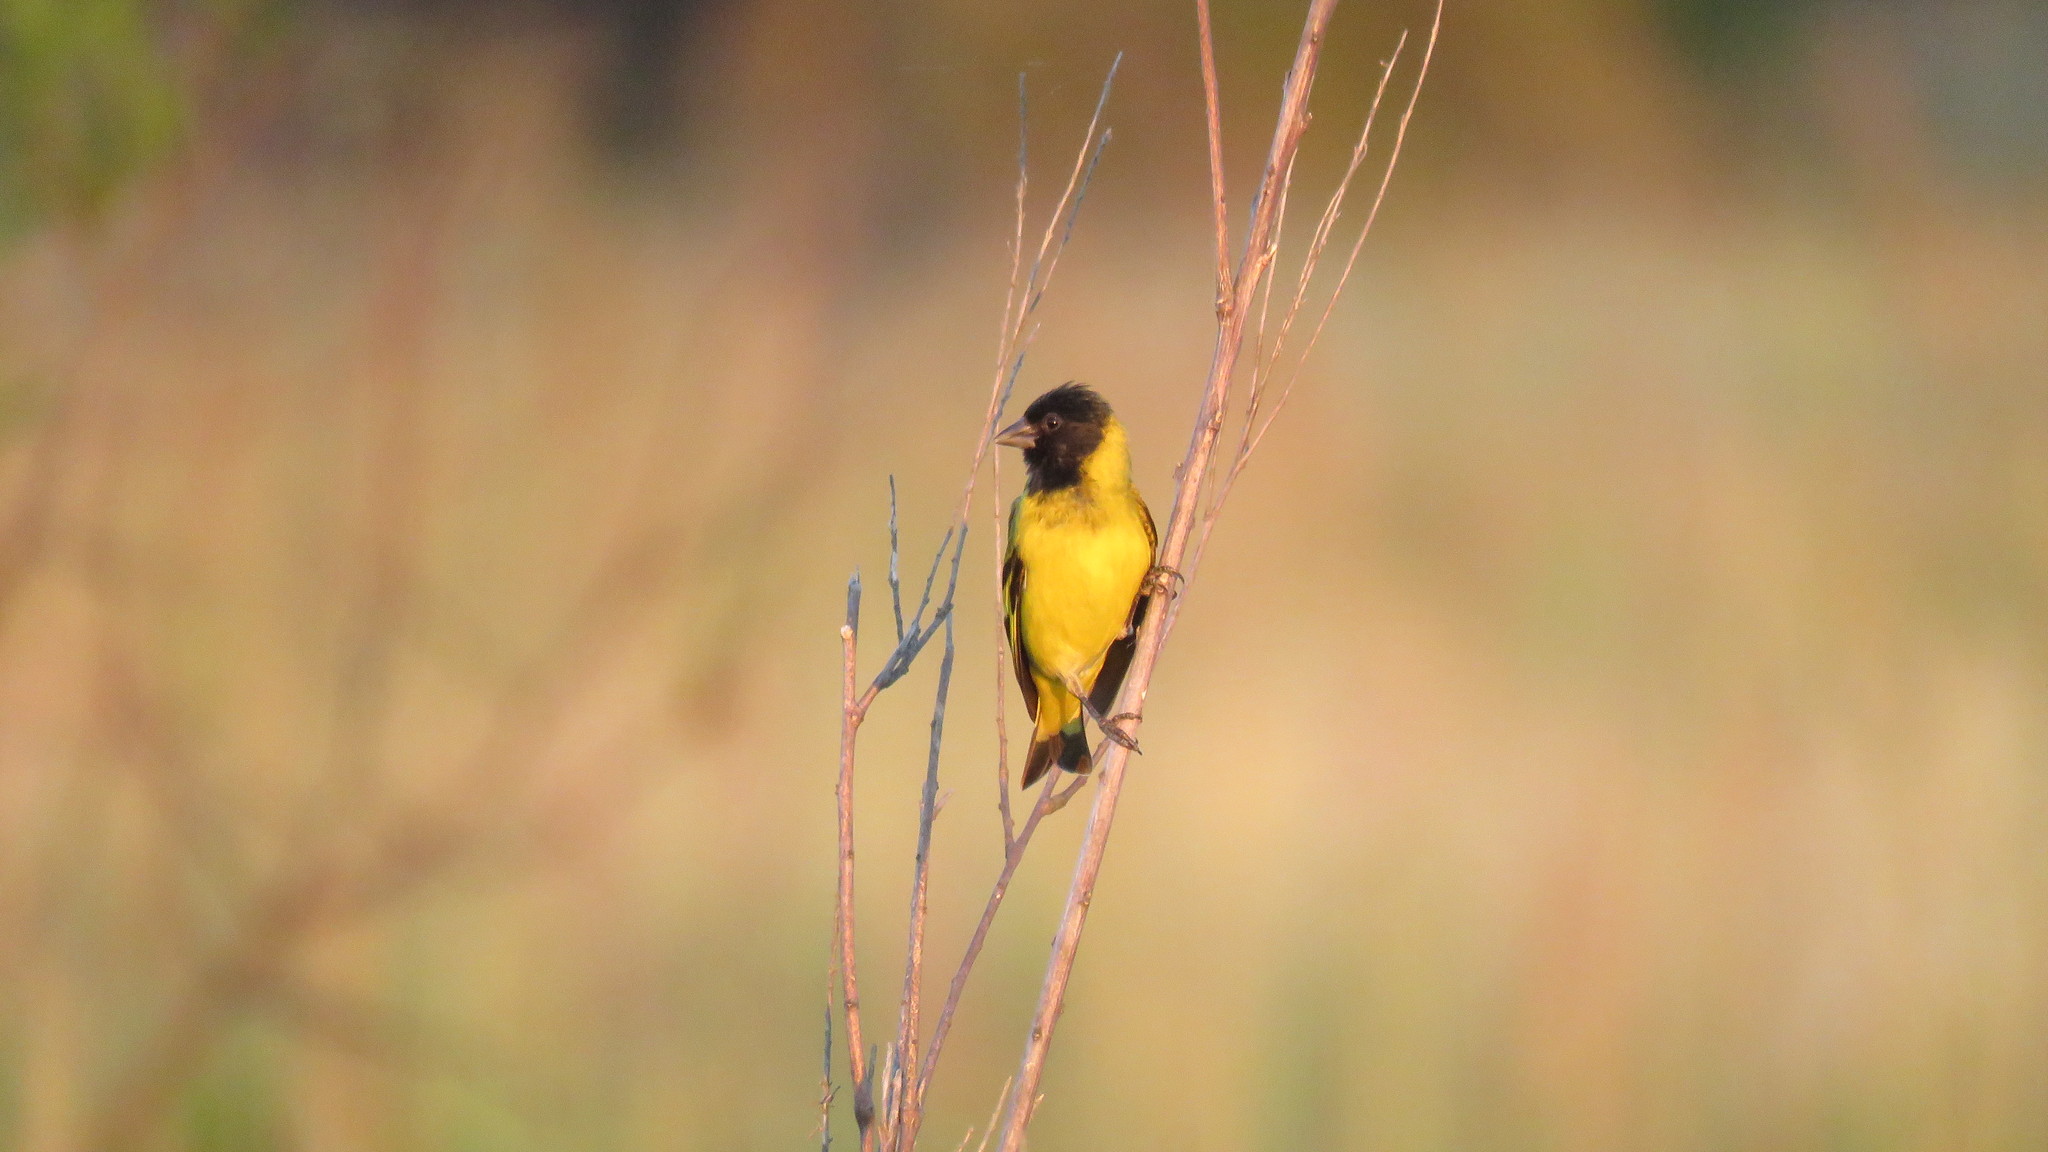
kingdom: Animalia
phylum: Chordata
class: Aves
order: Passeriformes
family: Fringillidae
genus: Spinus
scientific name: Spinus magellanicus
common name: Hooded siskin
